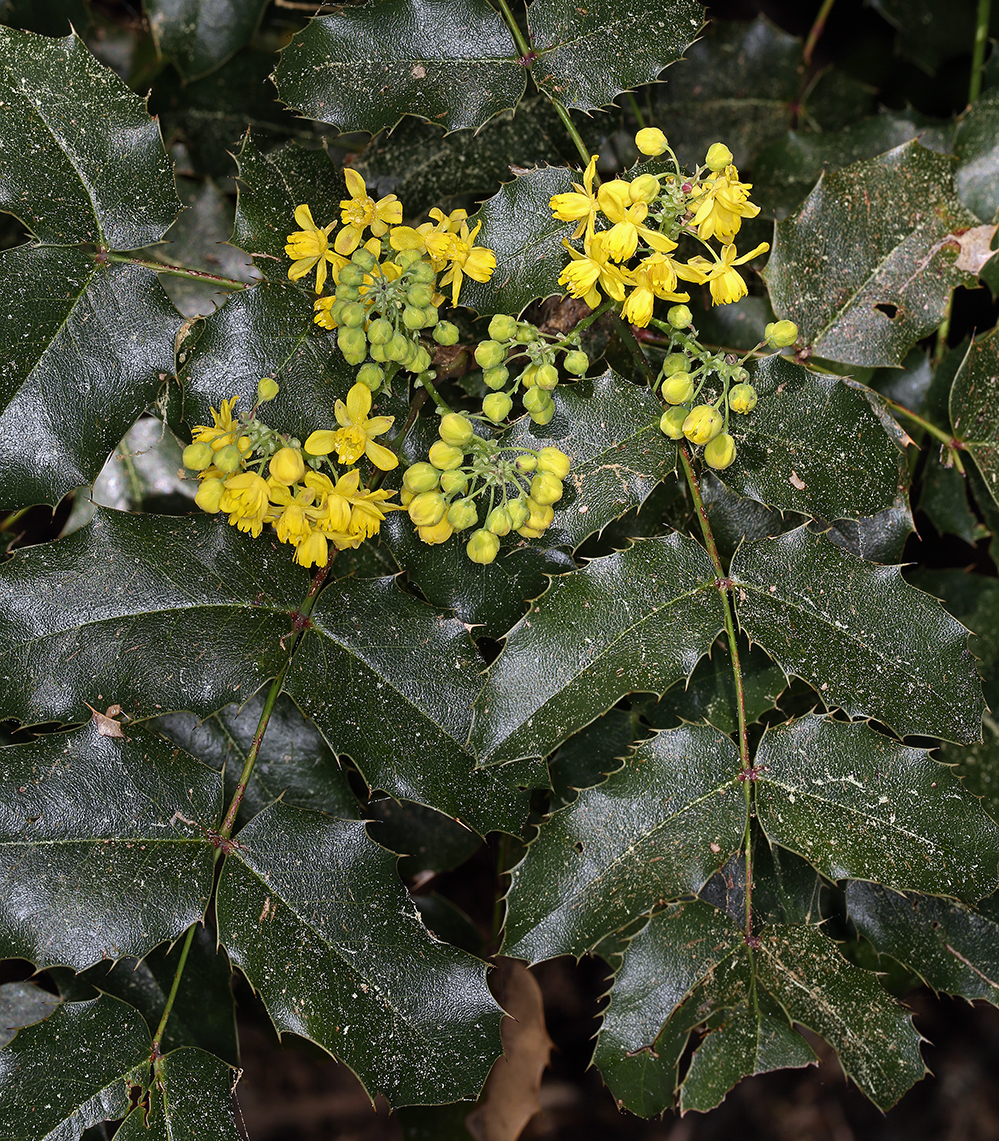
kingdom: Plantae
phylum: Tracheophyta
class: Magnoliopsida
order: Ranunculales
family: Berberidaceae
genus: Mahonia
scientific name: Mahonia aquifolium
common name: Oregon-grape
